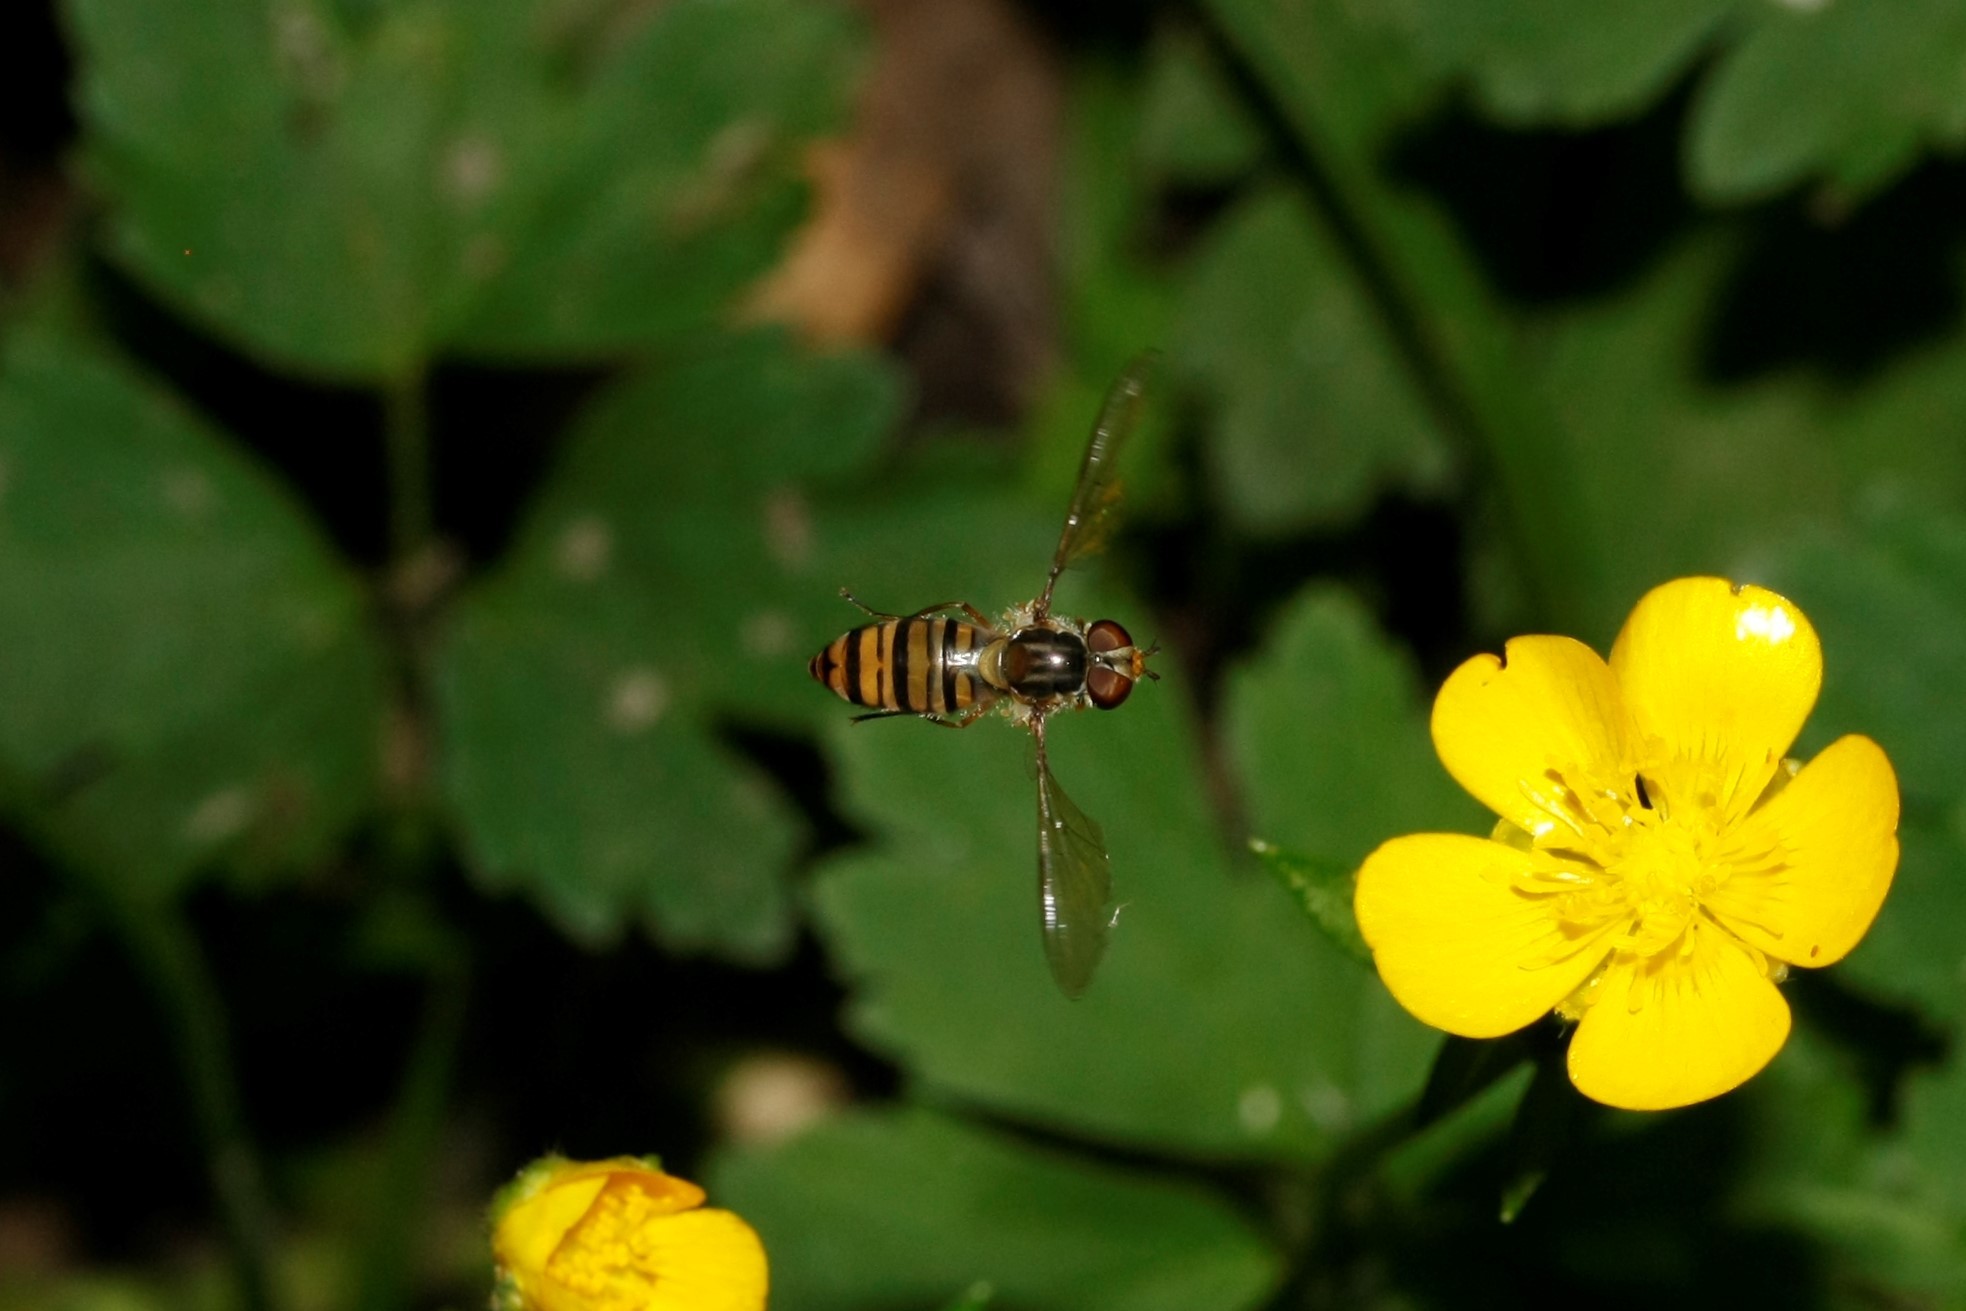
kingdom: Animalia
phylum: Arthropoda
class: Insecta
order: Diptera
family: Syrphidae
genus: Episyrphus
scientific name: Episyrphus balteatus
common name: Marmalade hoverfly
